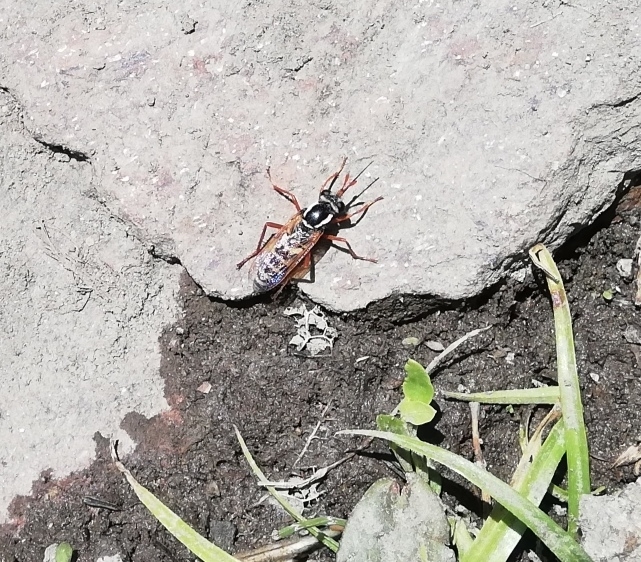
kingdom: Animalia
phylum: Arthropoda
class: Insecta
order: Diptera
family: Mydidae
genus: Mitrodetus
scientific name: Mitrodetus dentitarsis
